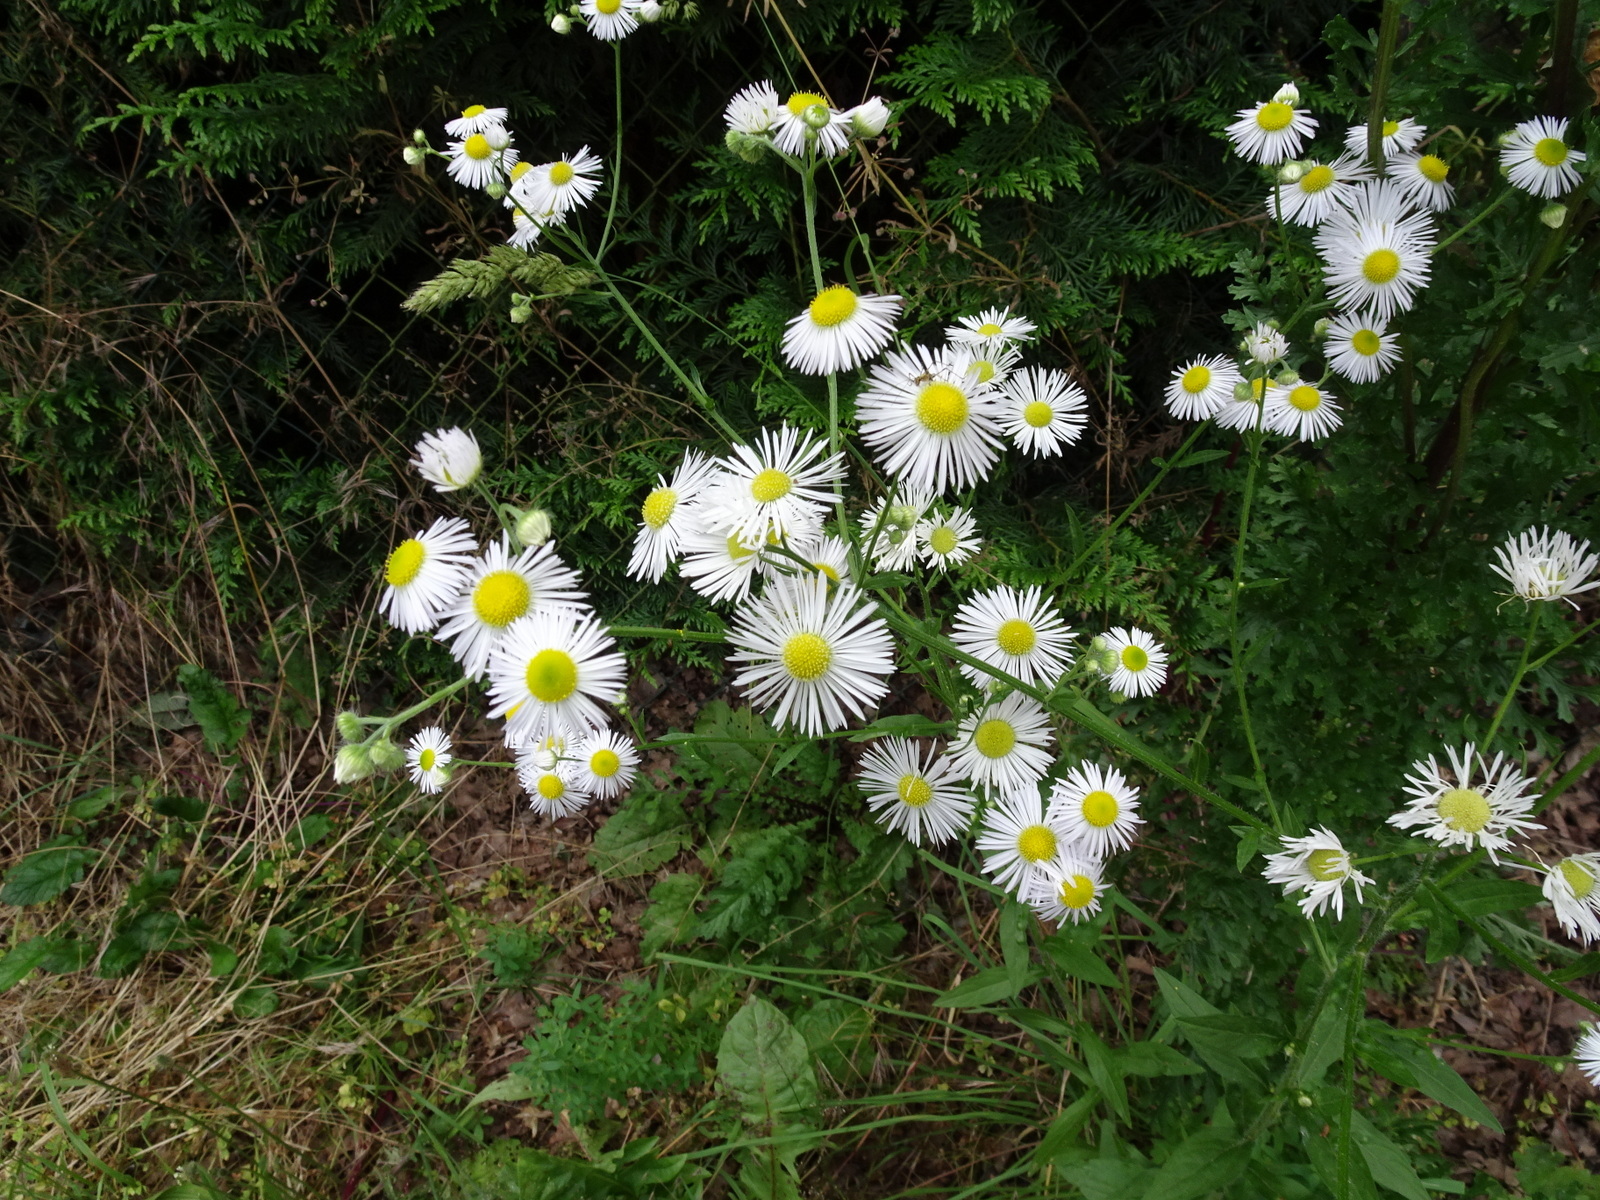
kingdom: Plantae
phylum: Tracheophyta
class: Magnoliopsida
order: Asterales
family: Asteraceae
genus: Erigeron
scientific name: Erigeron annuus
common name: Tall fleabane
